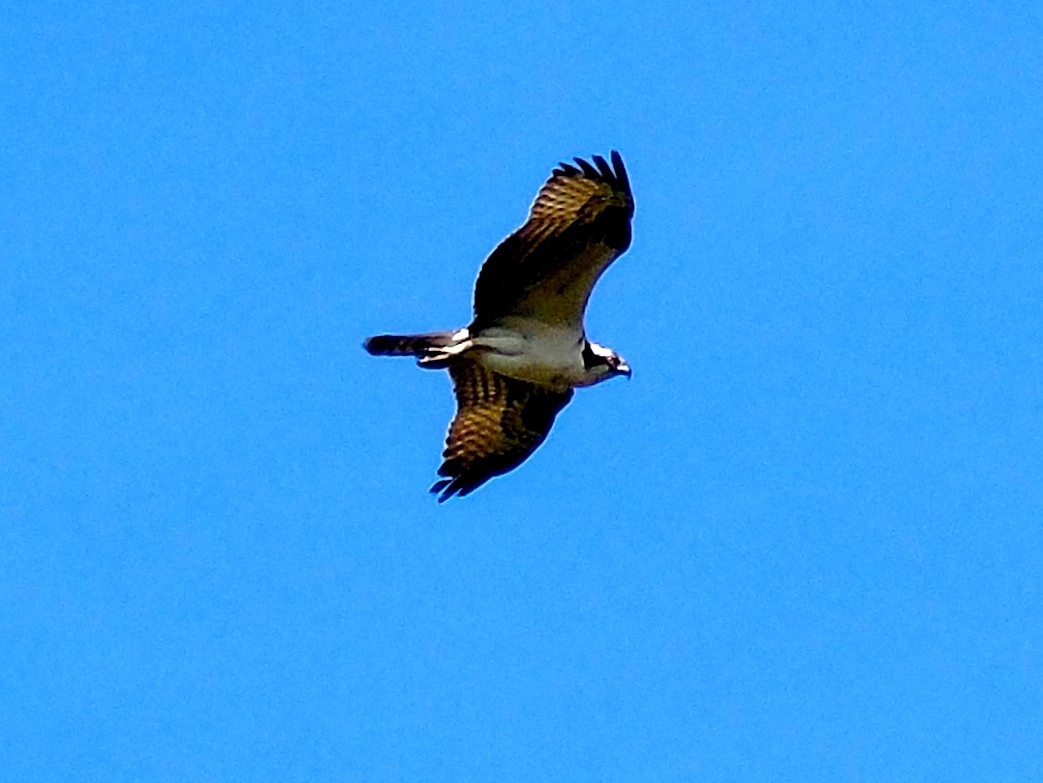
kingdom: Animalia
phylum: Chordata
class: Aves
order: Accipitriformes
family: Pandionidae
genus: Pandion
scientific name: Pandion haliaetus
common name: Osprey
